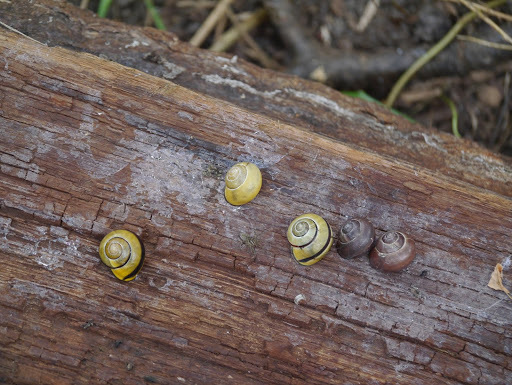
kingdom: Animalia
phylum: Mollusca
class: Gastropoda
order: Stylommatophora
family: Helicidae
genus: Cepaea
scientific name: Cepaea nemoralis
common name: Grovesnail
